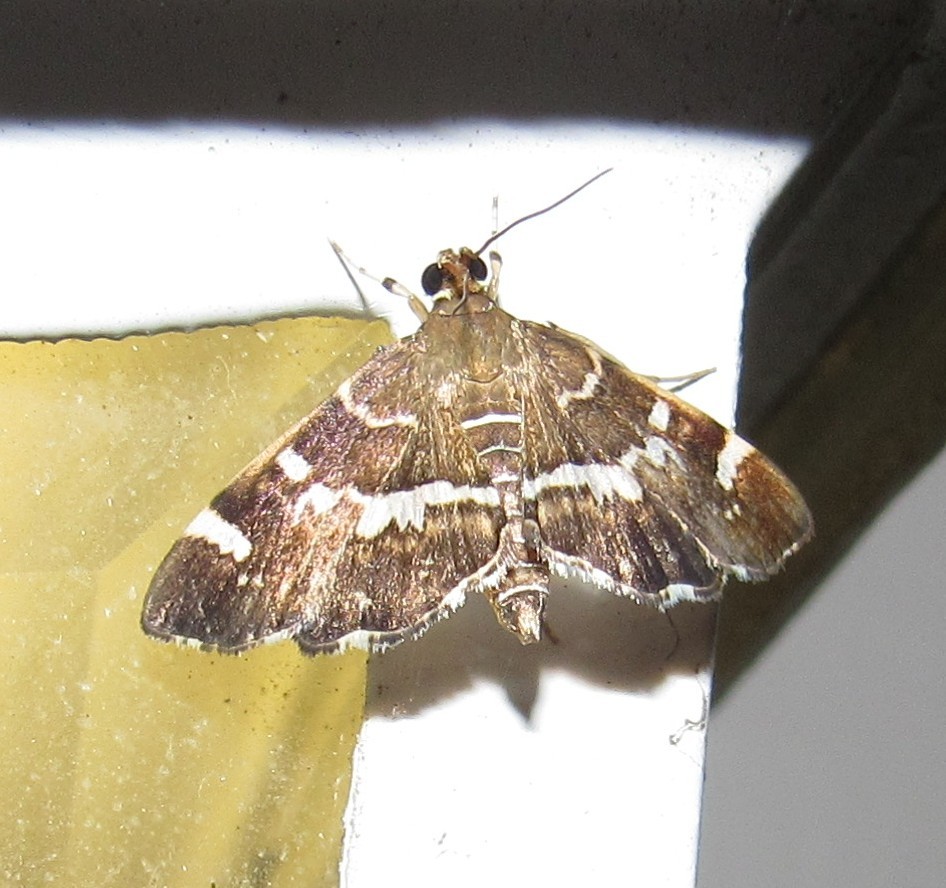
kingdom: Animalia
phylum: Arthropoda
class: Insecta
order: Lepidoptera
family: Crambidae
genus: Hymenia
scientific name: Hymenia perspectalis
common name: Spotted beet webworm
